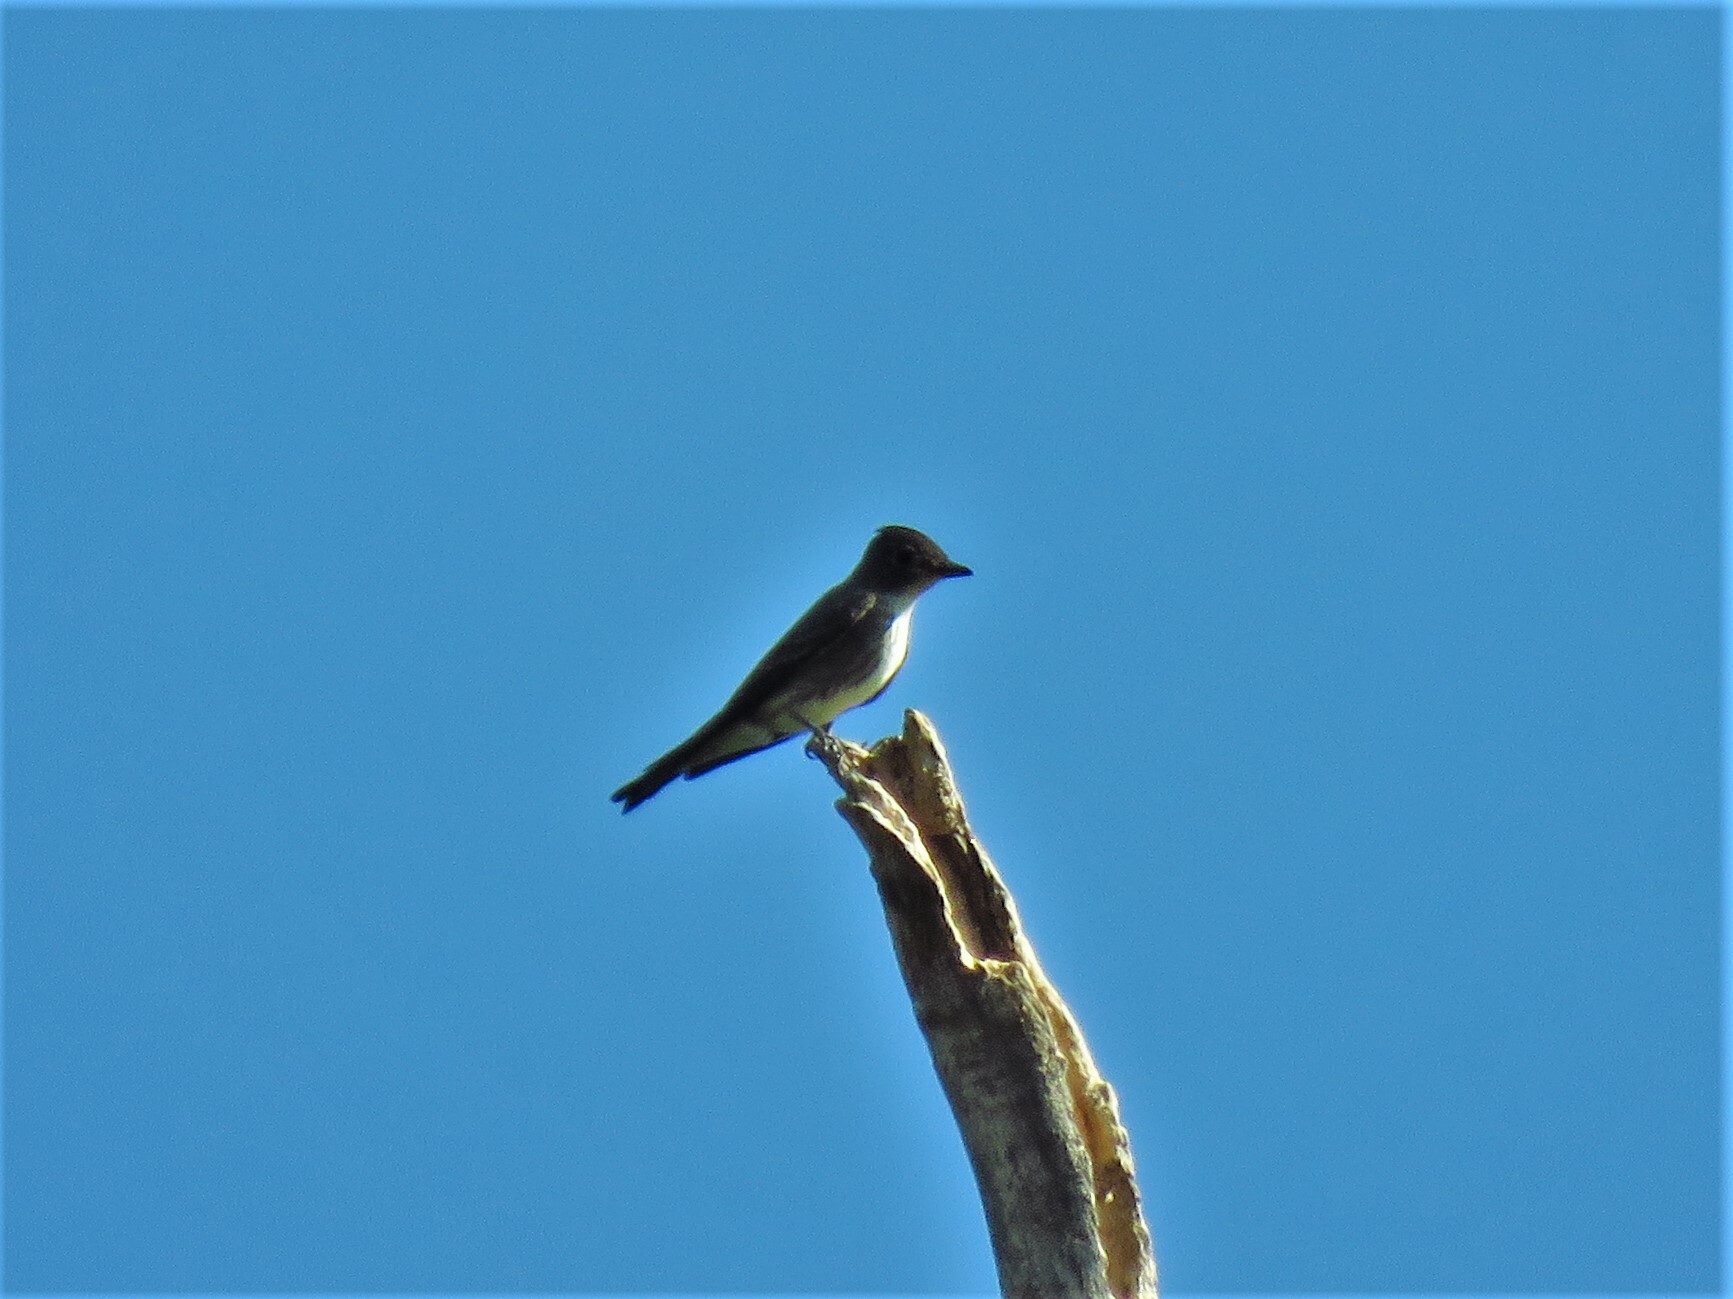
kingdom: Animalia
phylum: Chordata
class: Aves
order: Passeriformes
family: Tyrannidae
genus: Contopus
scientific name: Contopus cooperi
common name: Olive-sided flycatcher
